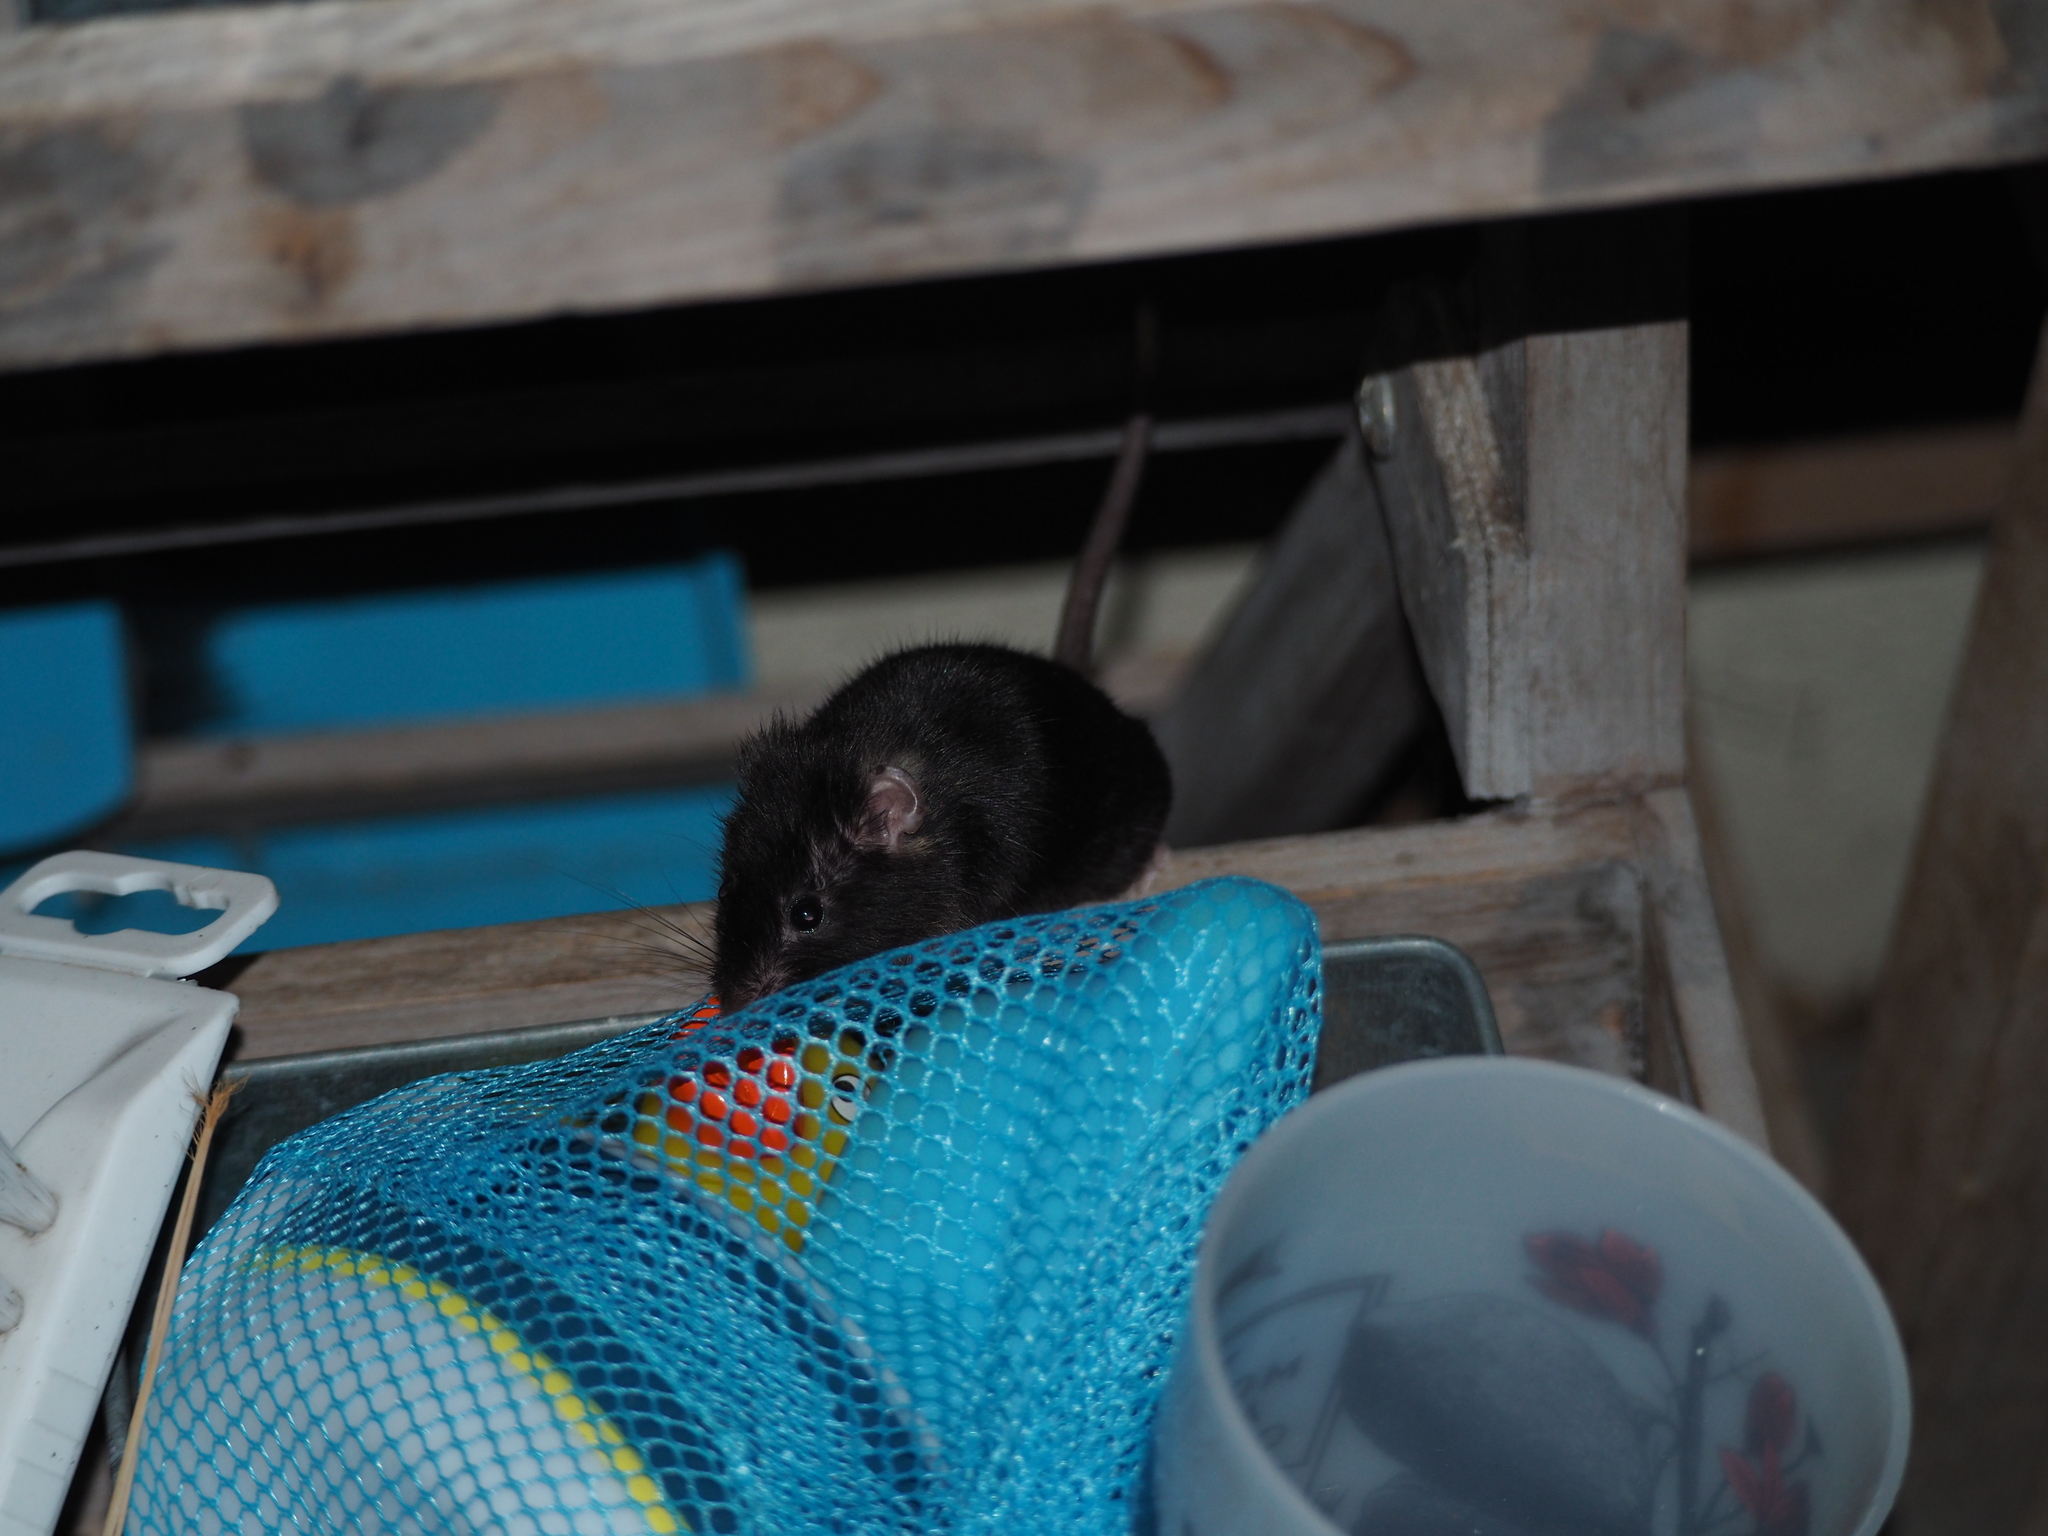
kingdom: Animalia
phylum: Chordata
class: Mammalia
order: Rodentia
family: Muridae
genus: Rattus
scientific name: Rattus norvegicus
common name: Brown rat
